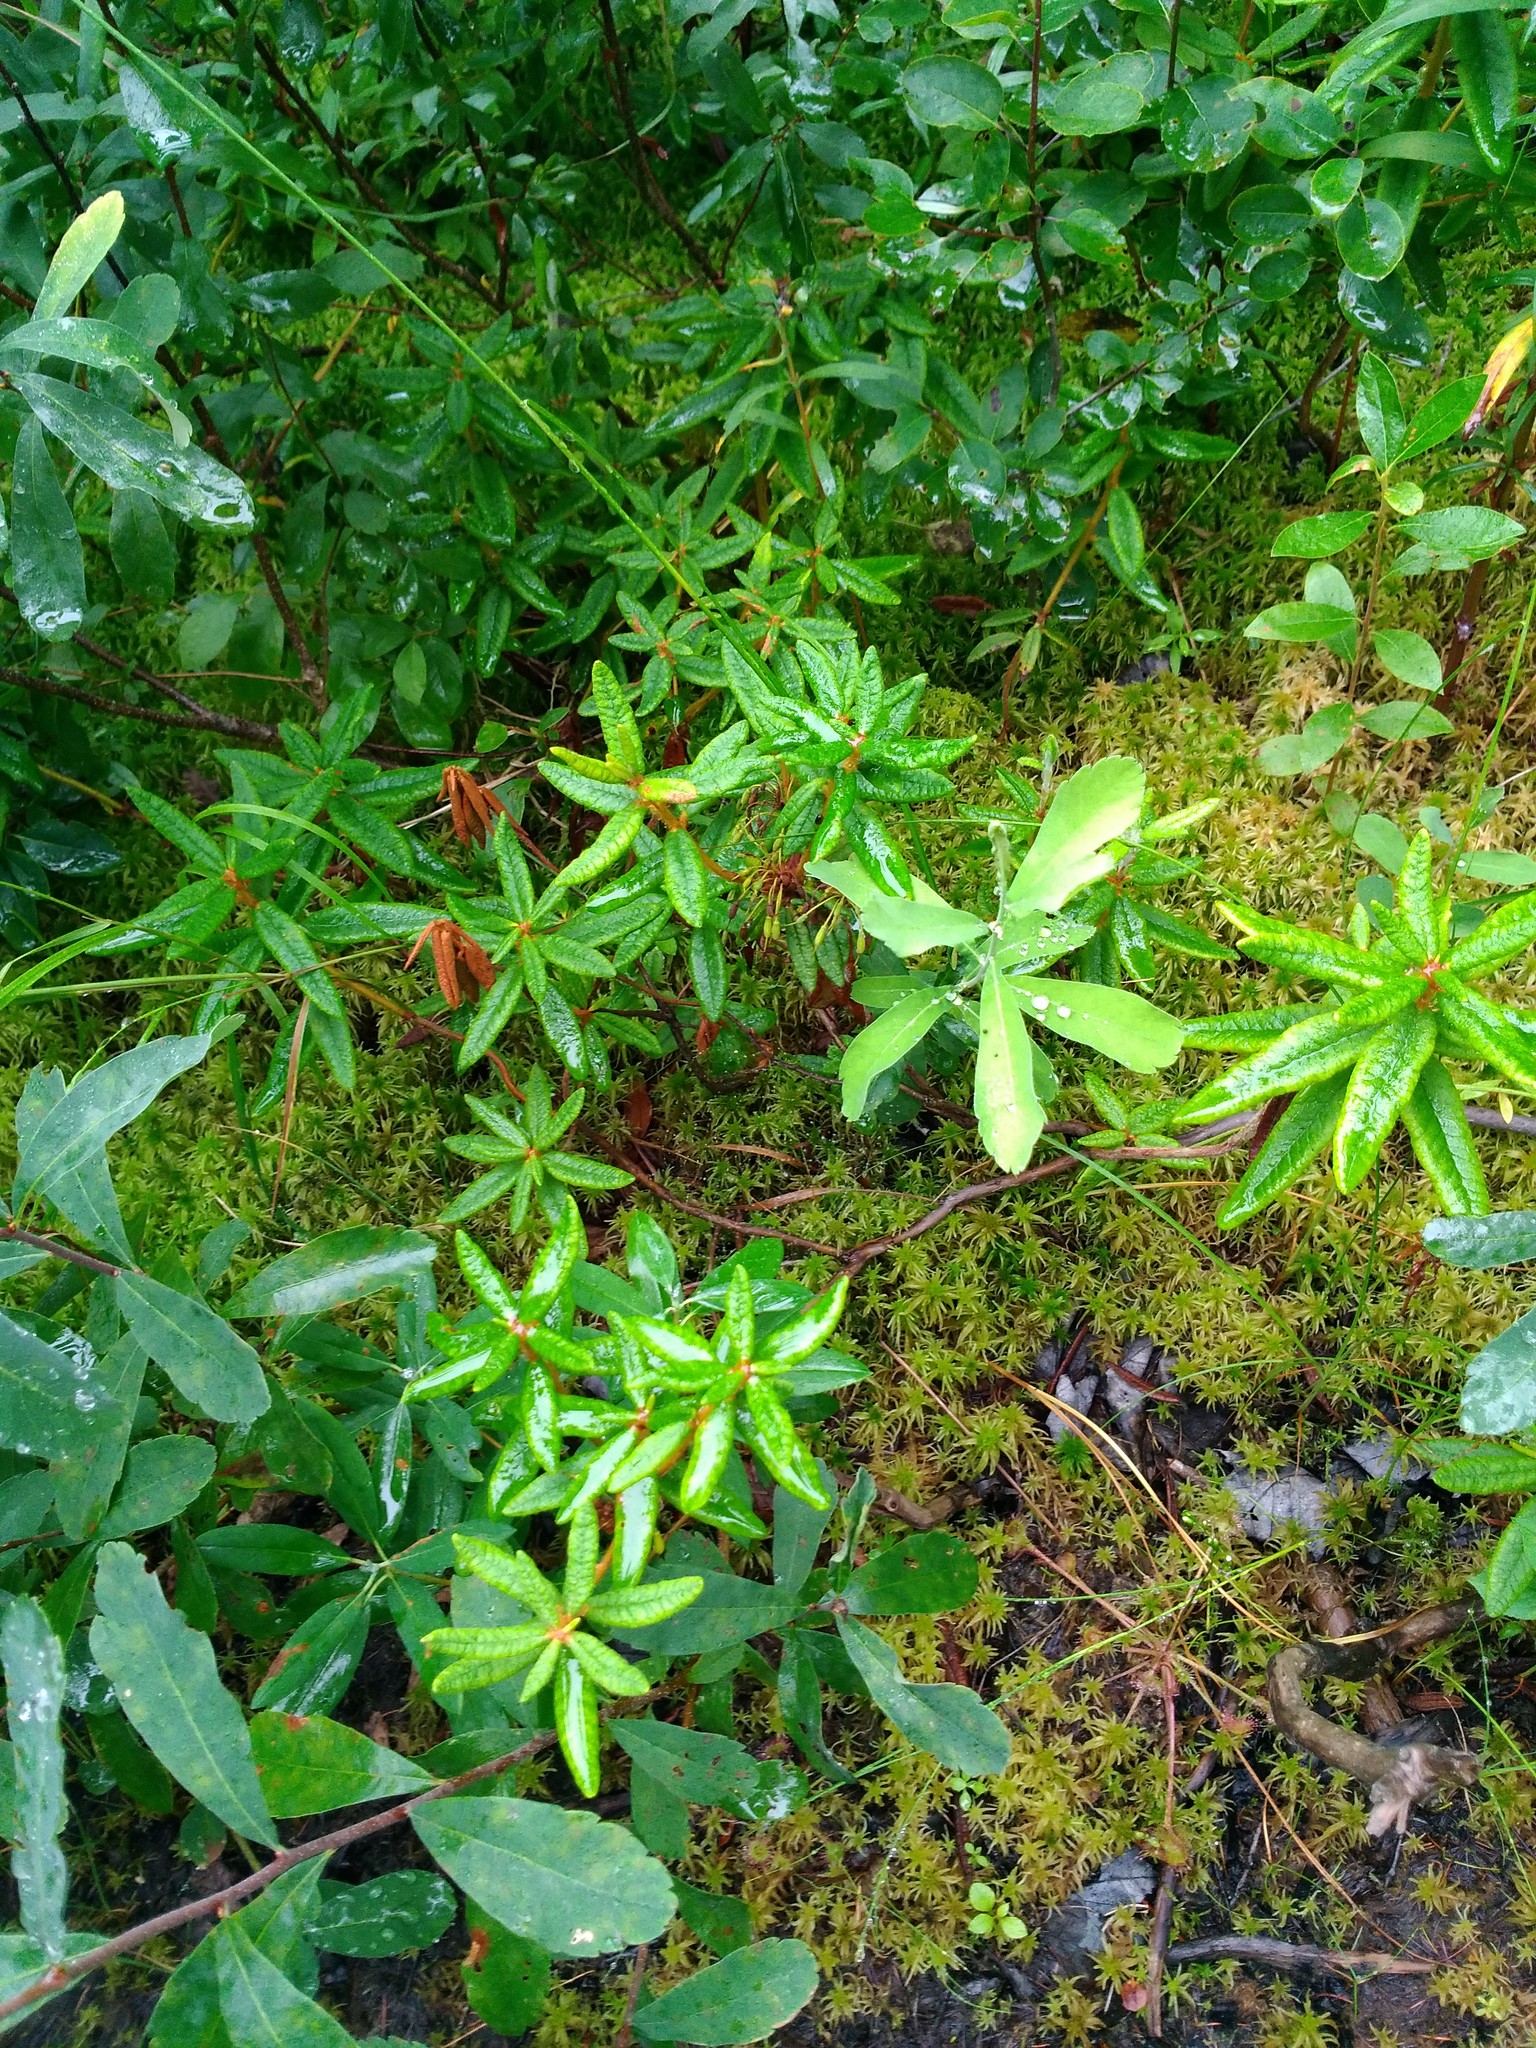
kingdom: Plantae
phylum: Tracheophyta
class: Magnoliopsida
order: Ericales
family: Ericaceae
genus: Rhododendron
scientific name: Rhododendron groenlandicum
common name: Bog labrador tea
